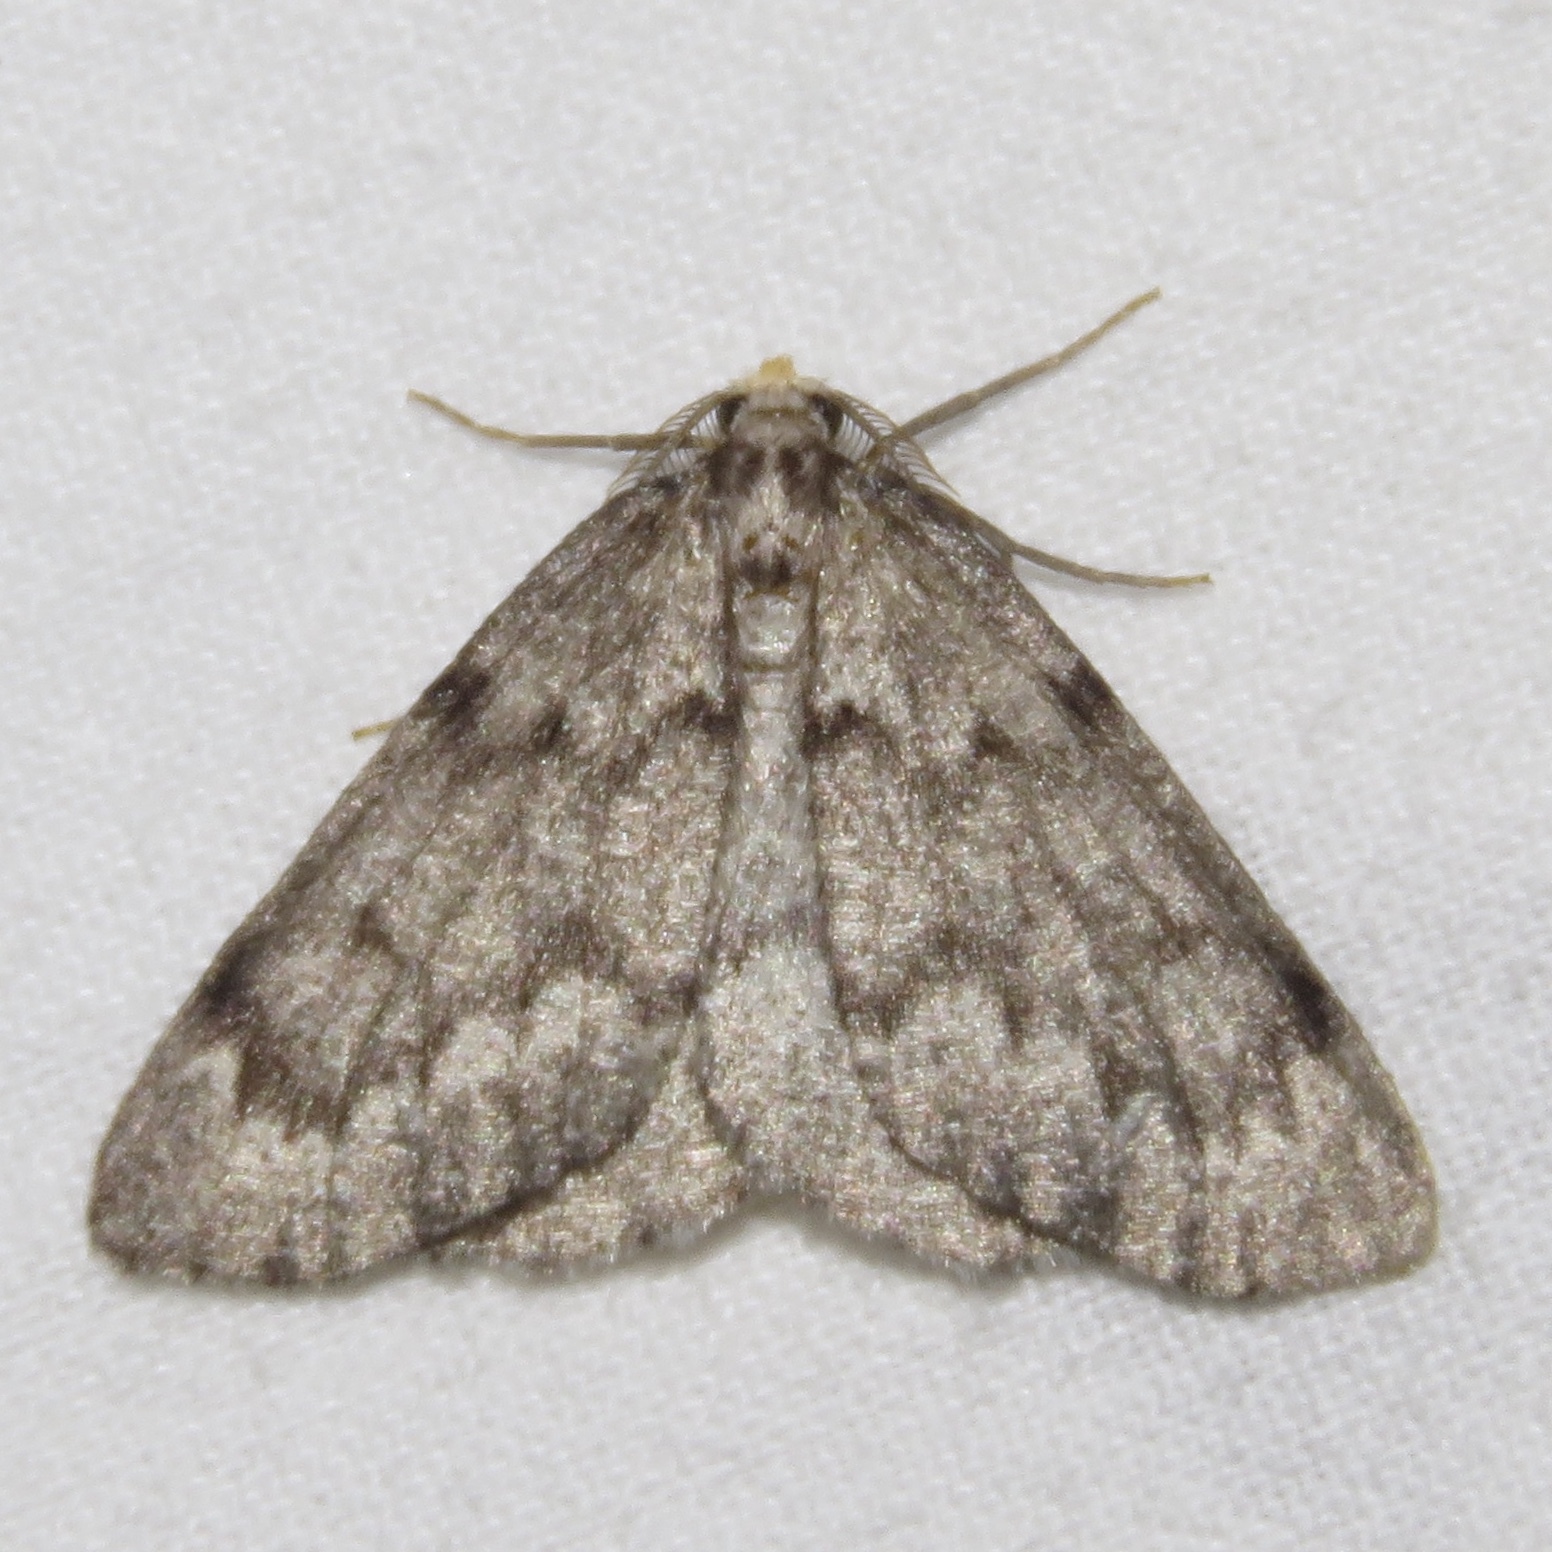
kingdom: Animalia
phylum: Arthropoda
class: Insecta
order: Lepidoptera
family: Geometridae
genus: Nepytia
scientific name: Nepytia canosaria
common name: False hemlock looper
